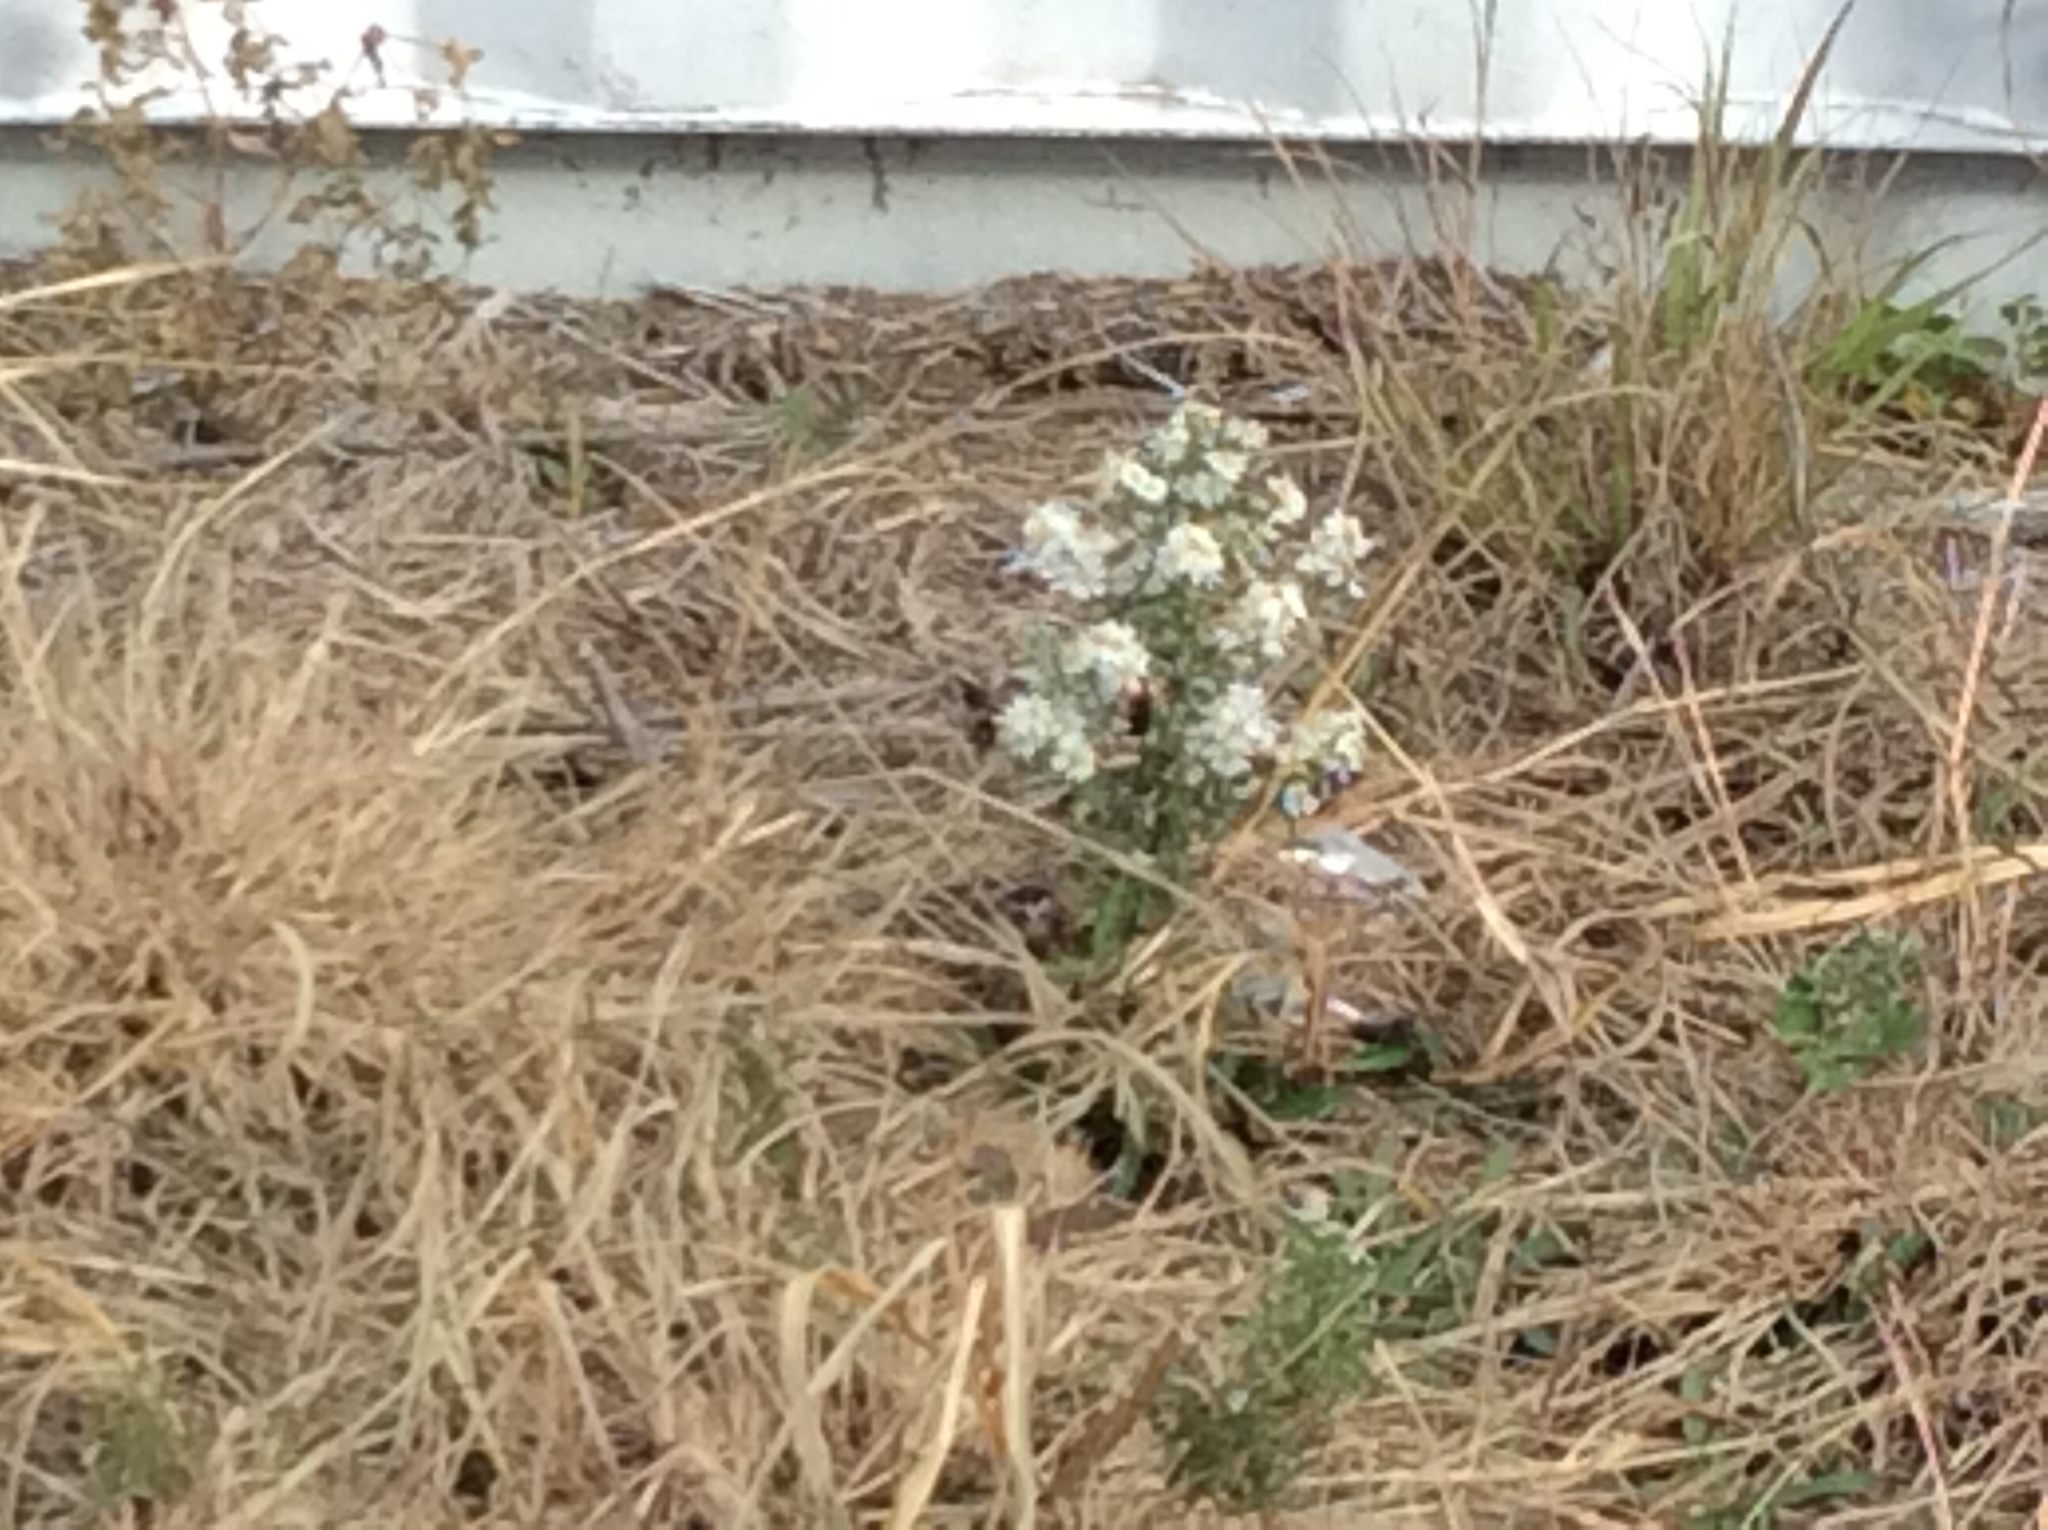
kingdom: Animalia
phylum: Arthropoda
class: Insecta
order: Hymenoptera
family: Vespidae
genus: Fuscopolistes
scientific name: Fuscopolistes
